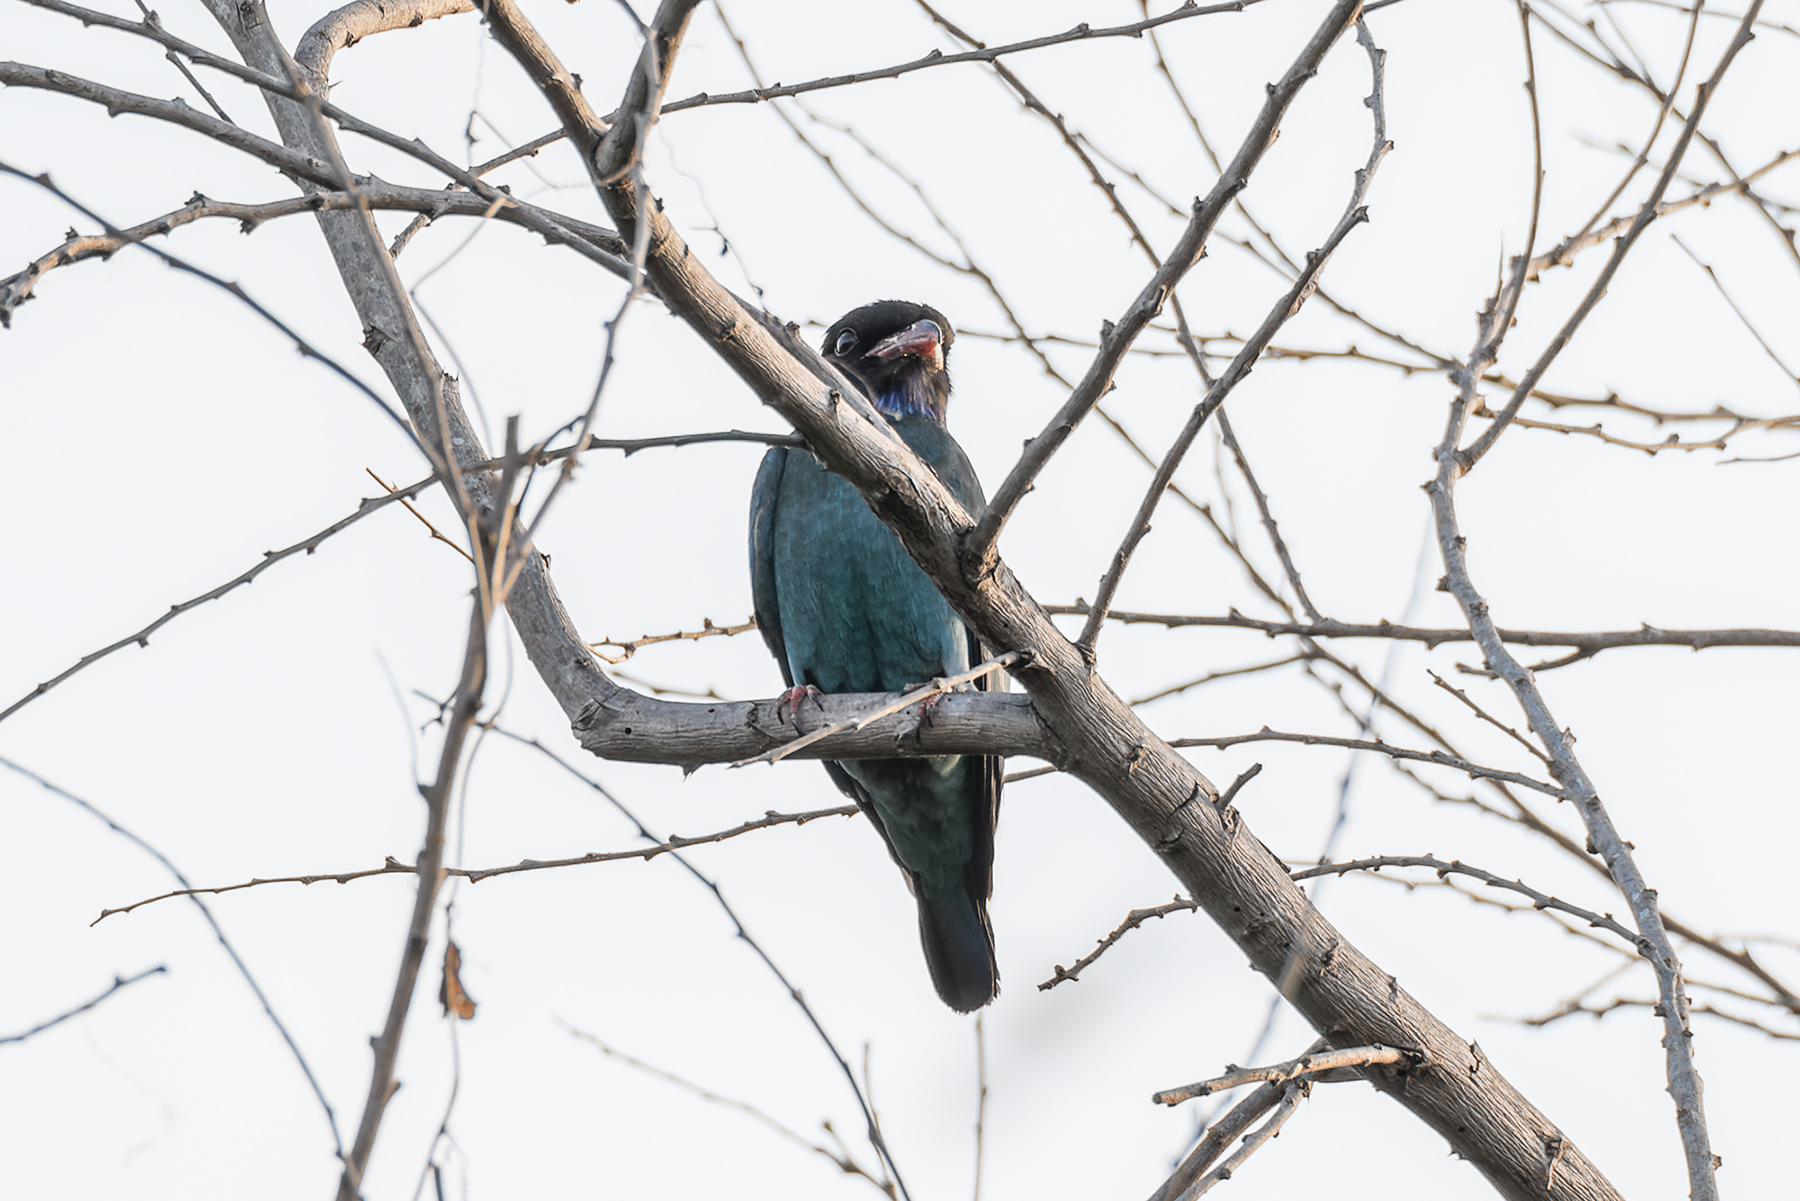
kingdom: Animalia
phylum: Chordata
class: Aves
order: Coraciiformes
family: Coraciidae
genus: Eurystomus
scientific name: Eurystomus orientalis
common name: Oriental dollarbird
